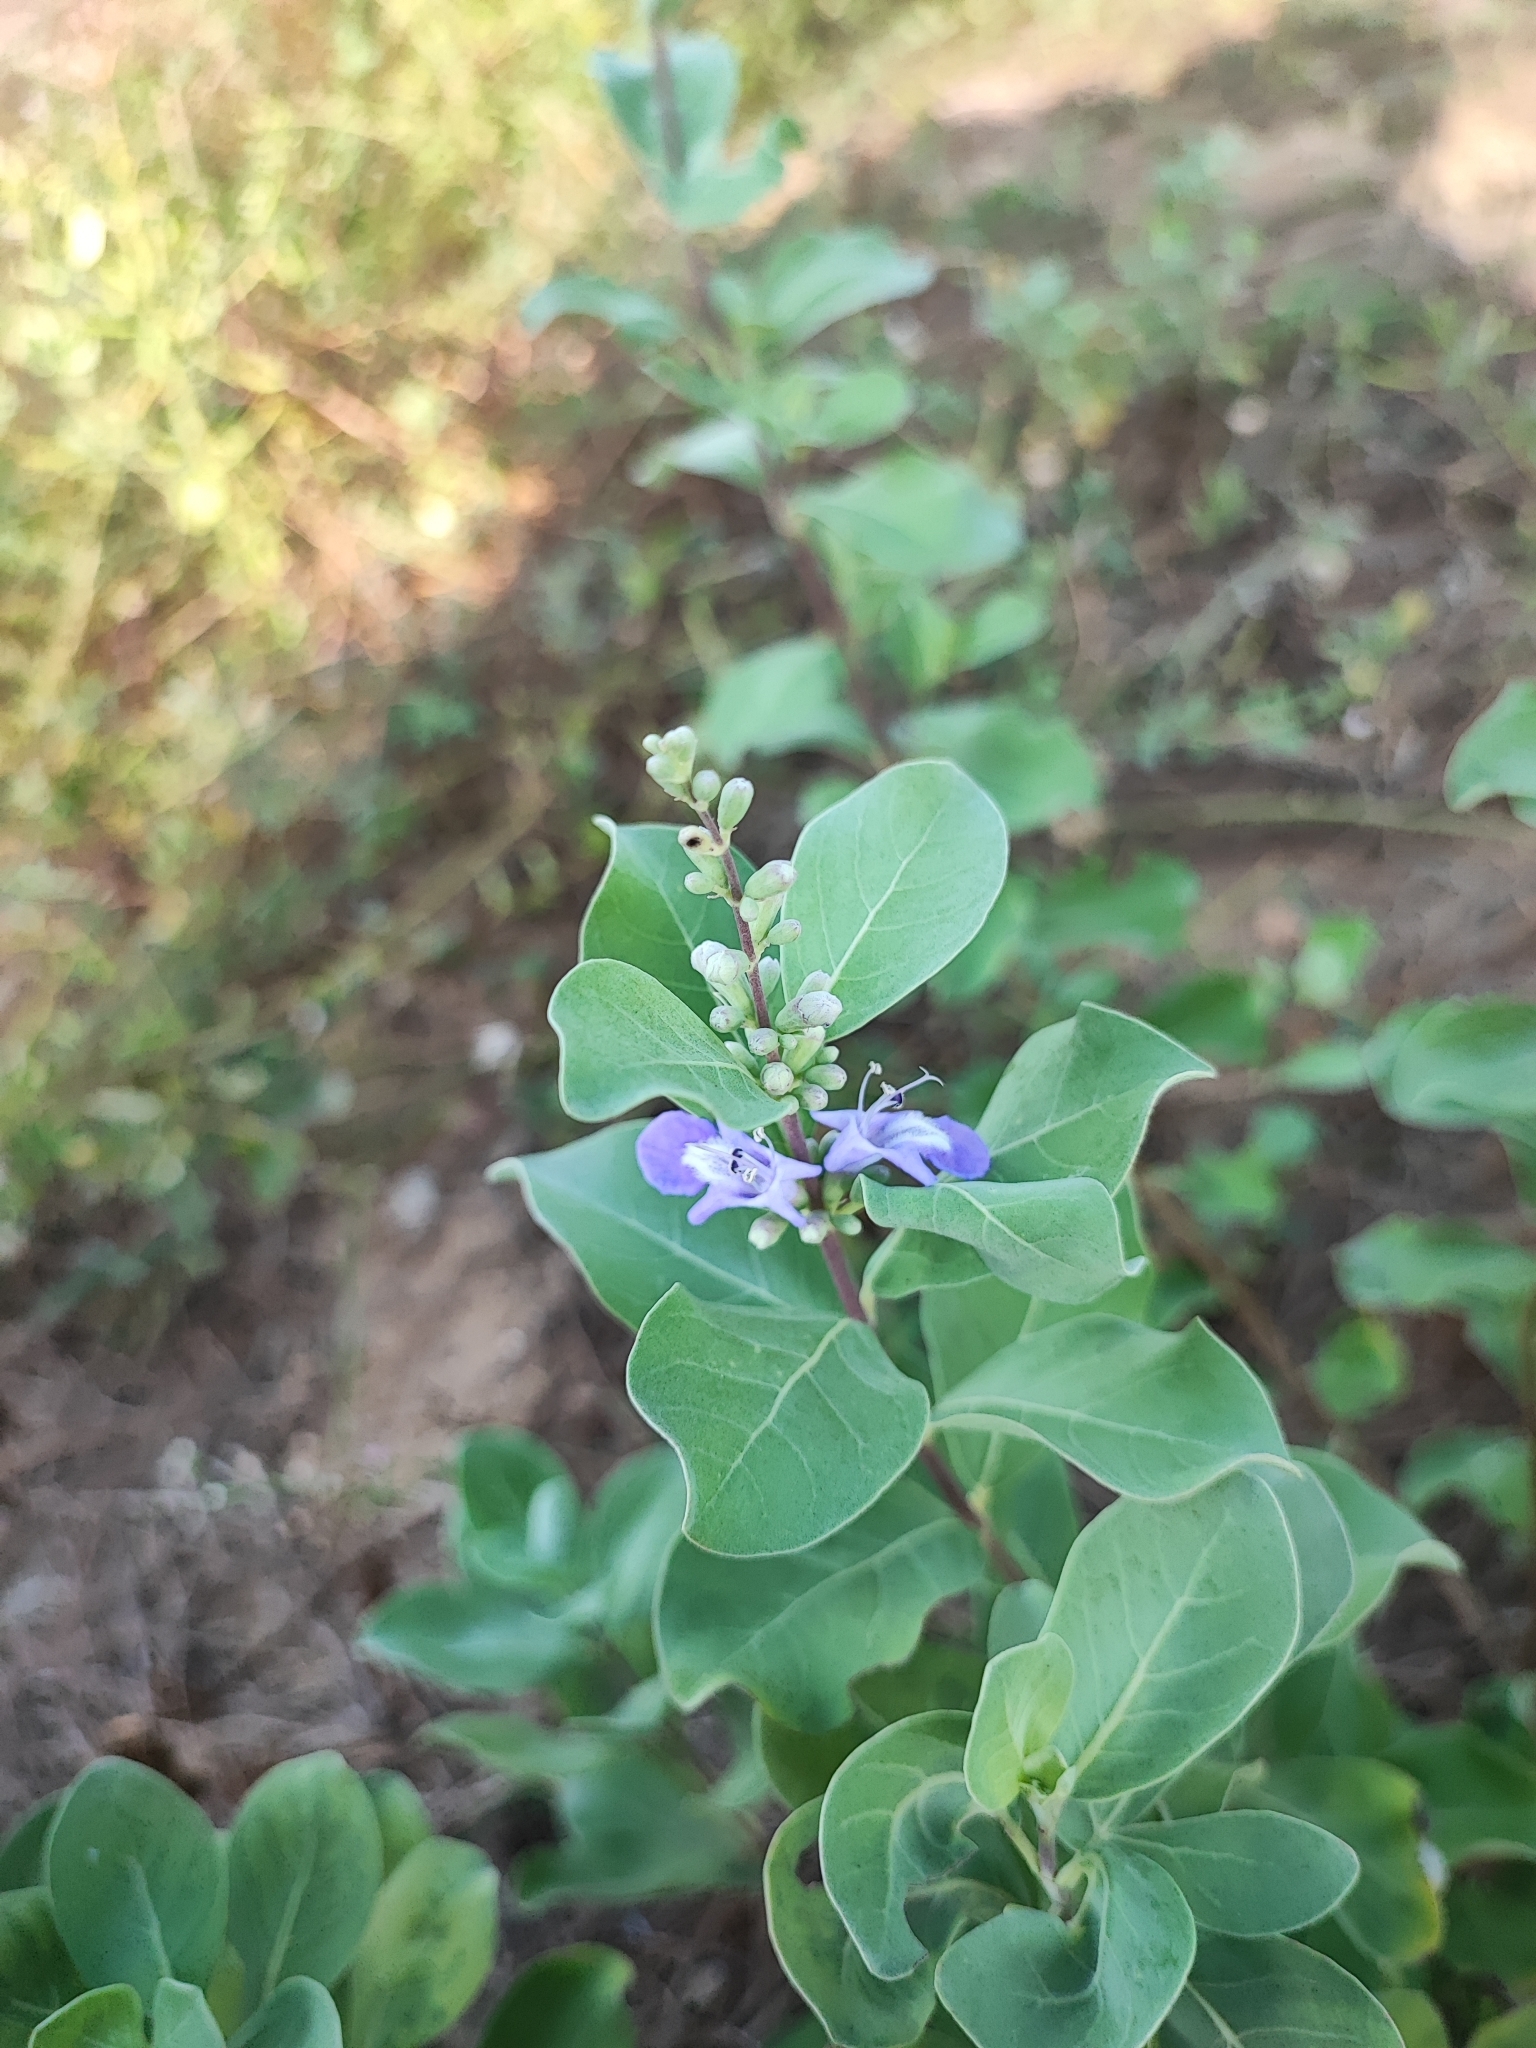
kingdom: Plantae
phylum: Tracheophyta
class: Magnoliopsida
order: Lamiales
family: Lamiaceae
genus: Vitex
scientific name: Vitex rotundifolia
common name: Beach vitex
